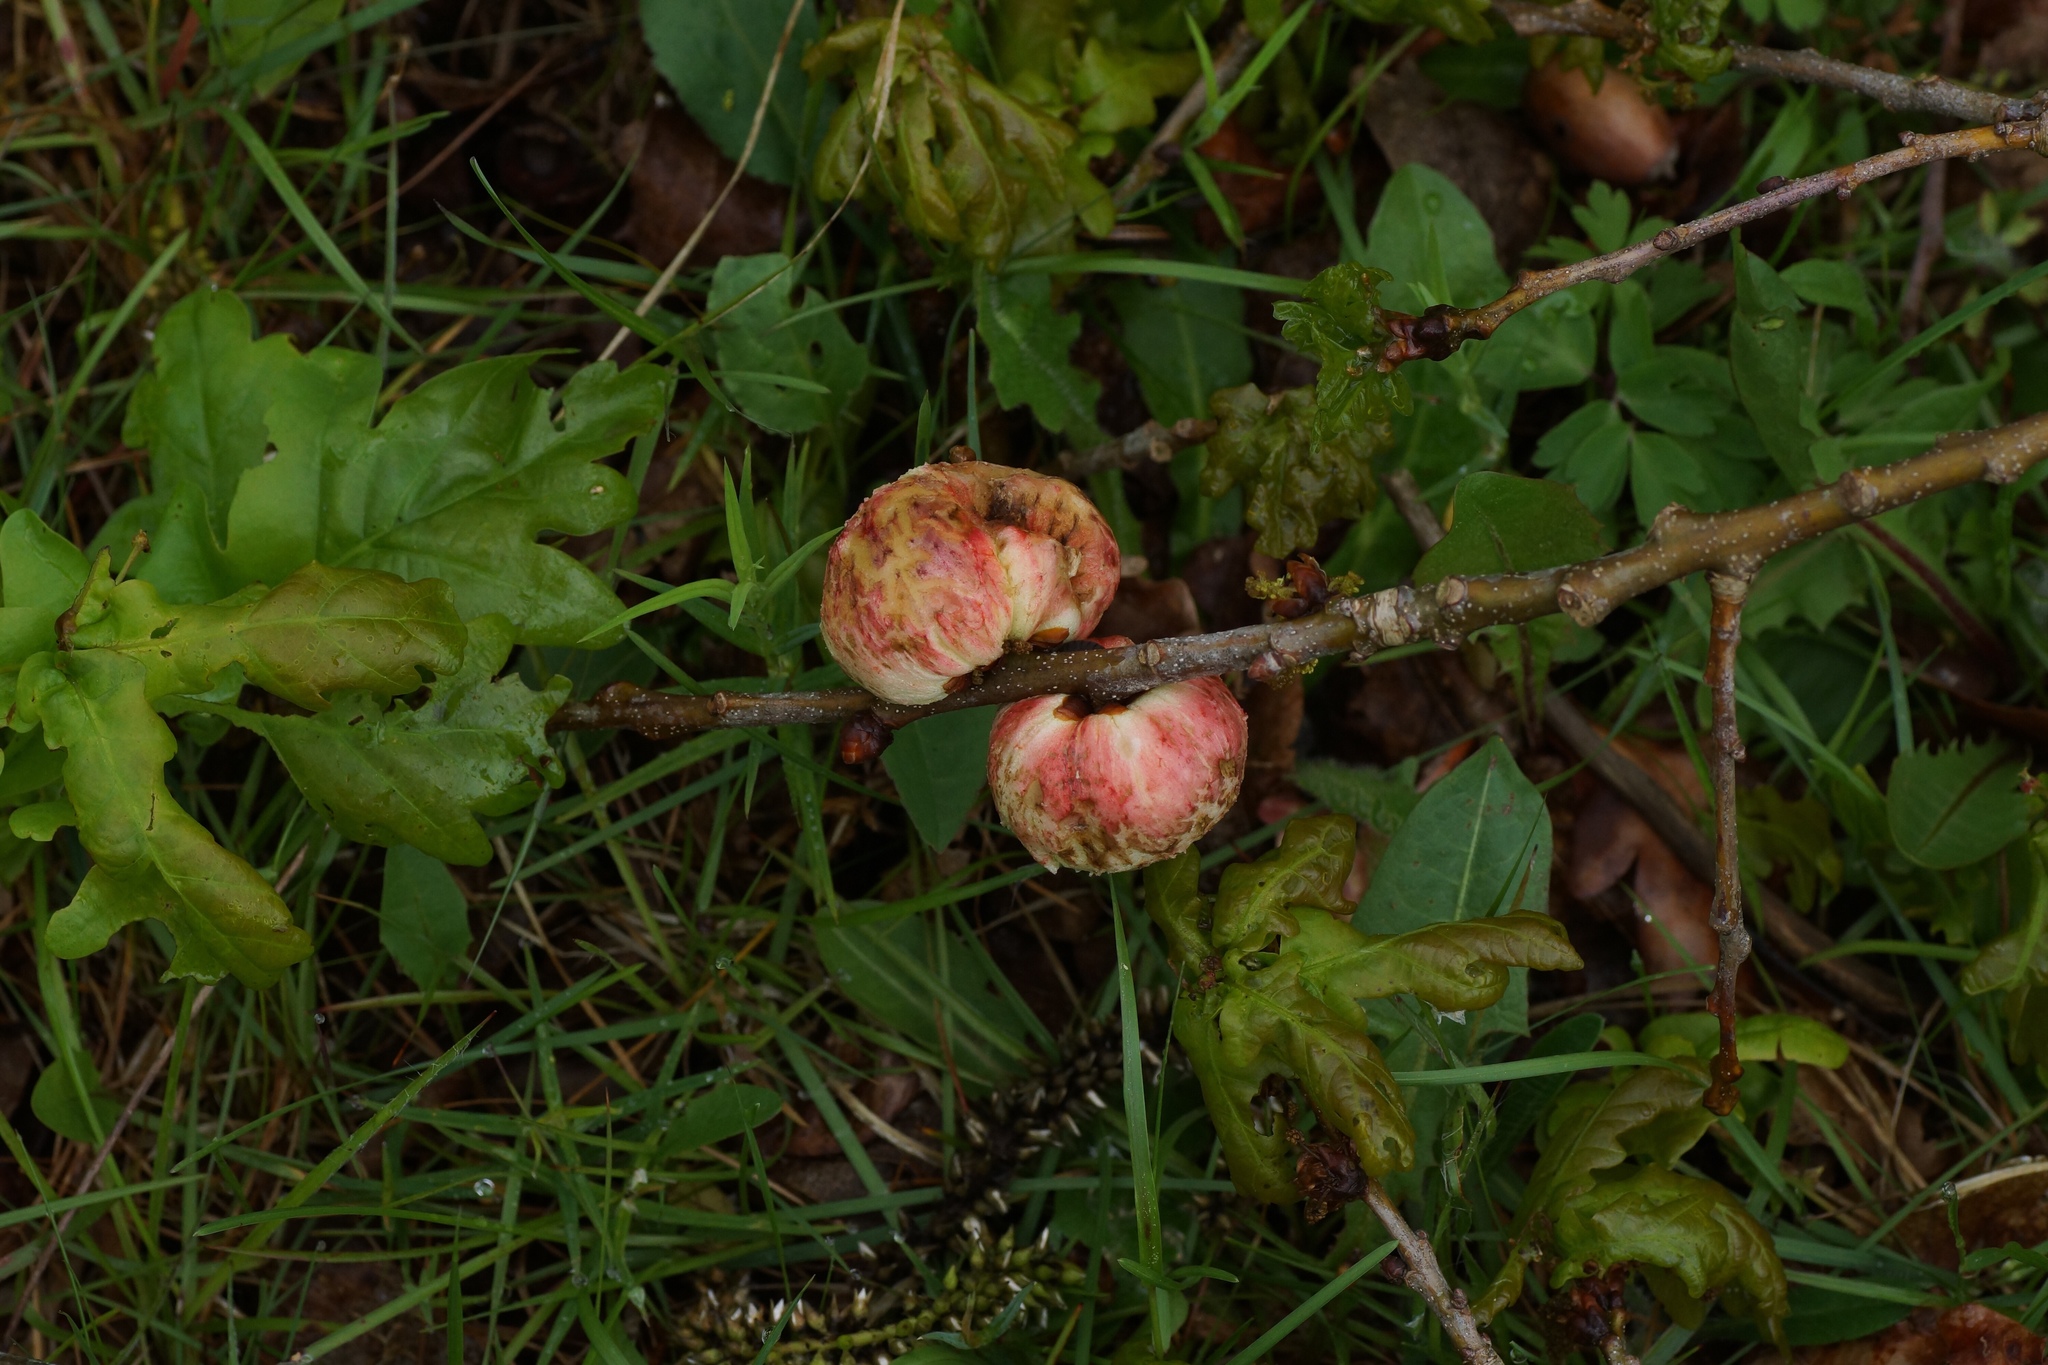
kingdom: Animalia
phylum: Arthropoda
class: Insecta
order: Hymenoptera
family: Cynipidae
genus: Biorhiza
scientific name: Biorhiza pallida
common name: Oak apple
